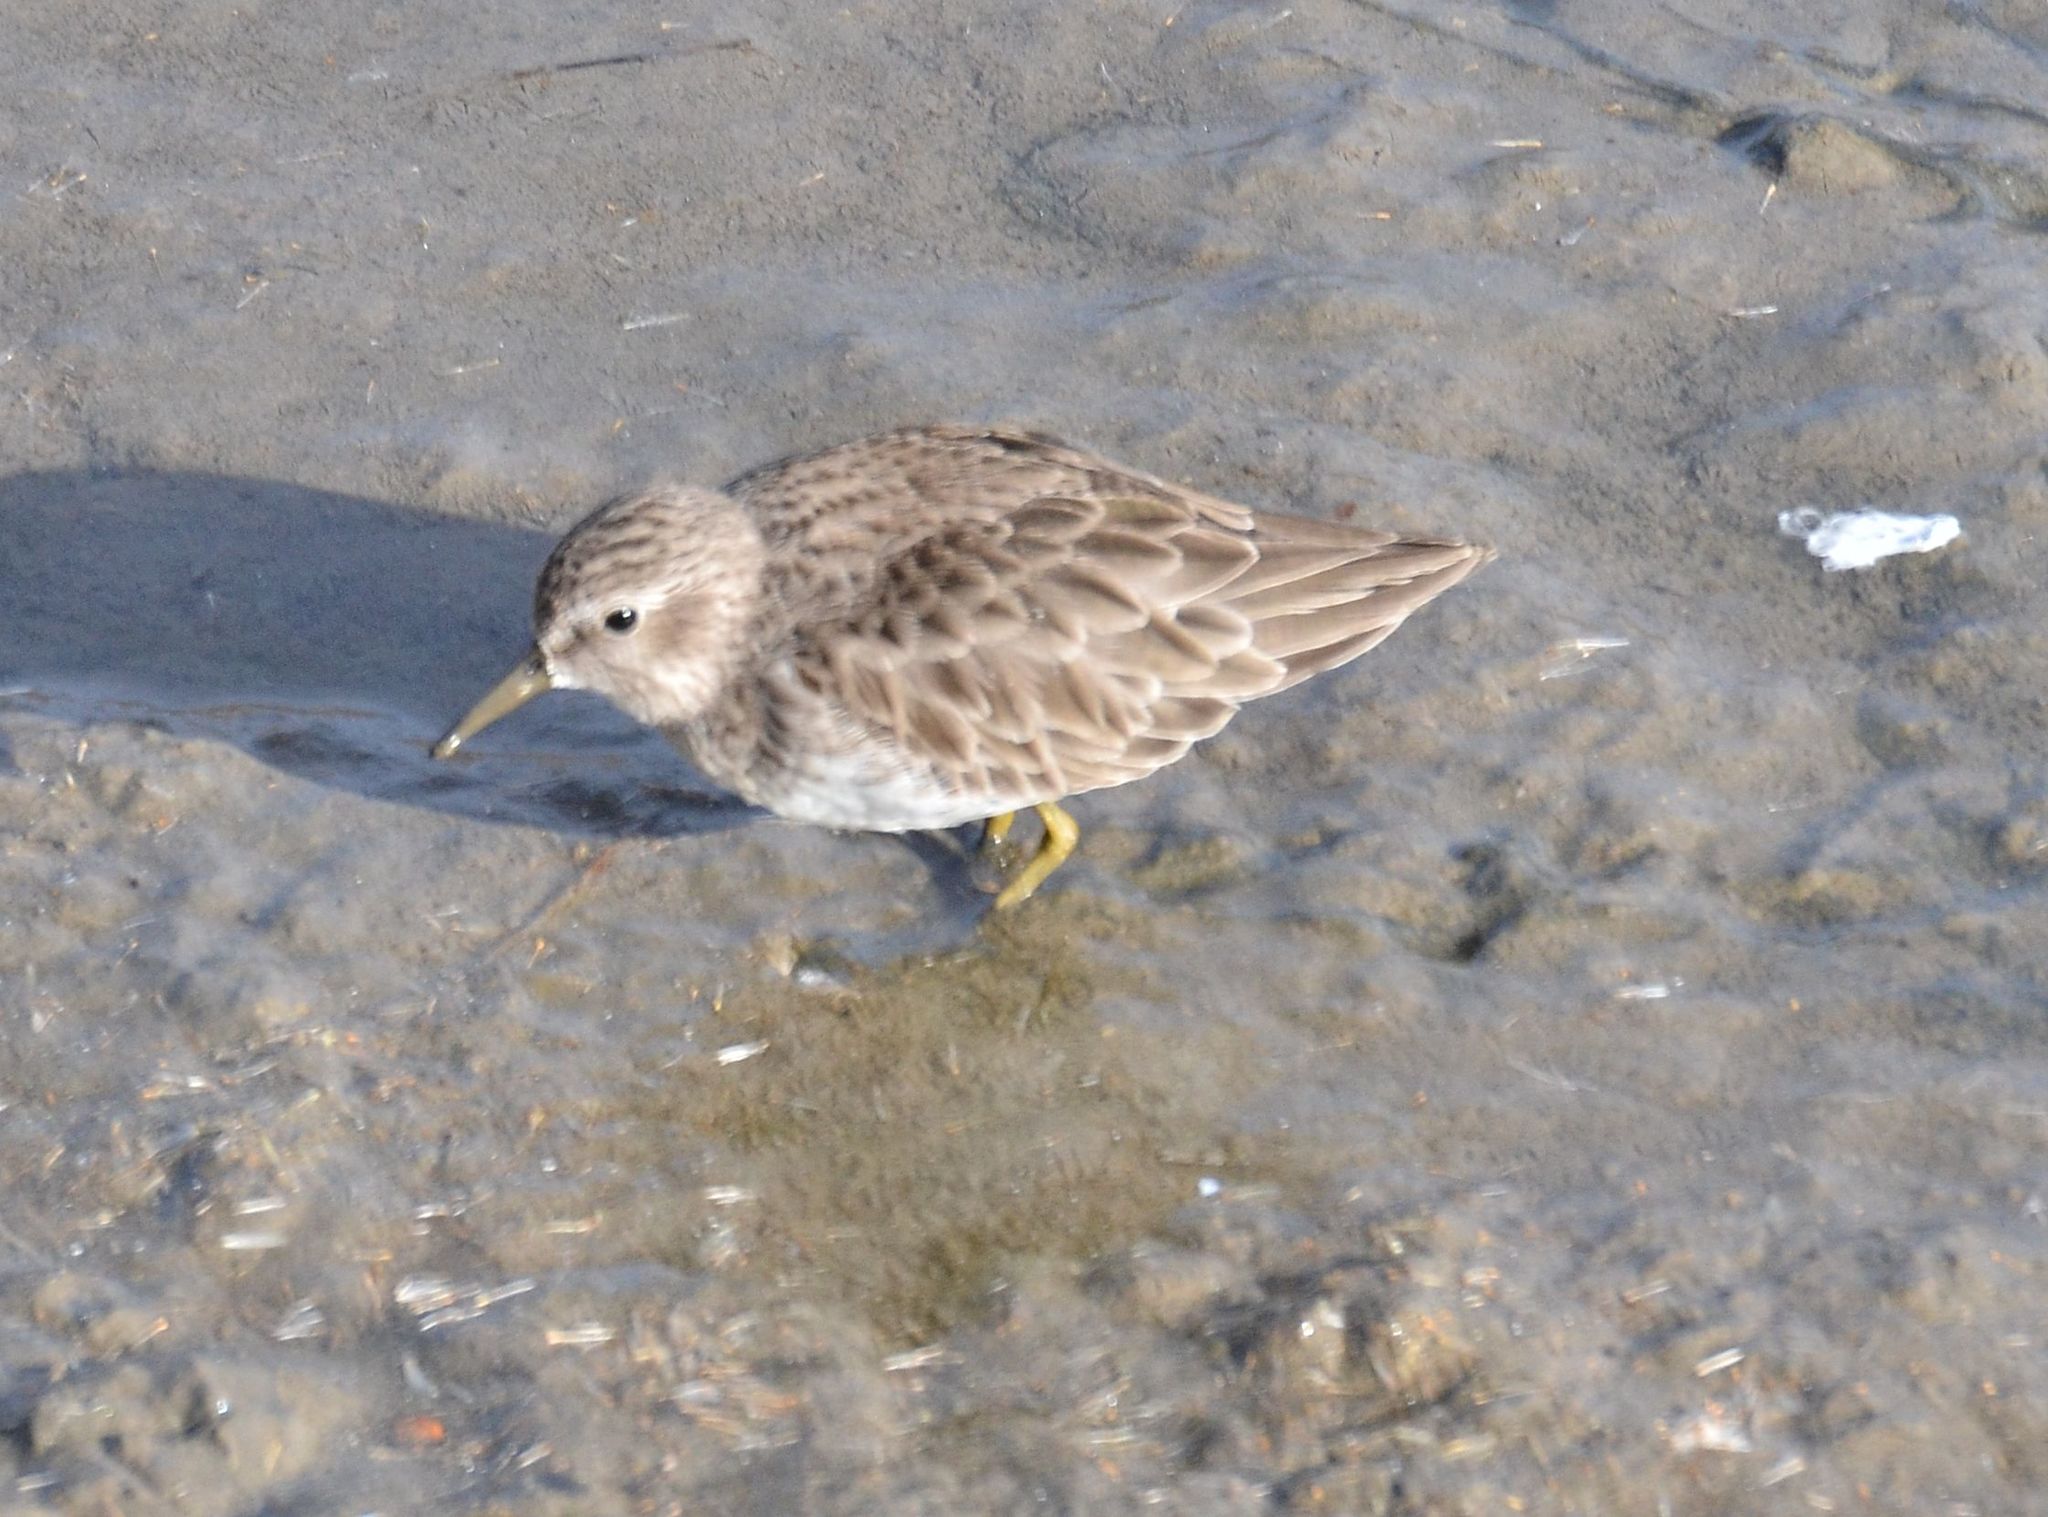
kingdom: Animalia
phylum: Chordata
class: Aves
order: Charadriiformes
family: Scolopacidae
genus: Calidris
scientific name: Calidris minutilla
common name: Least sandpiper
